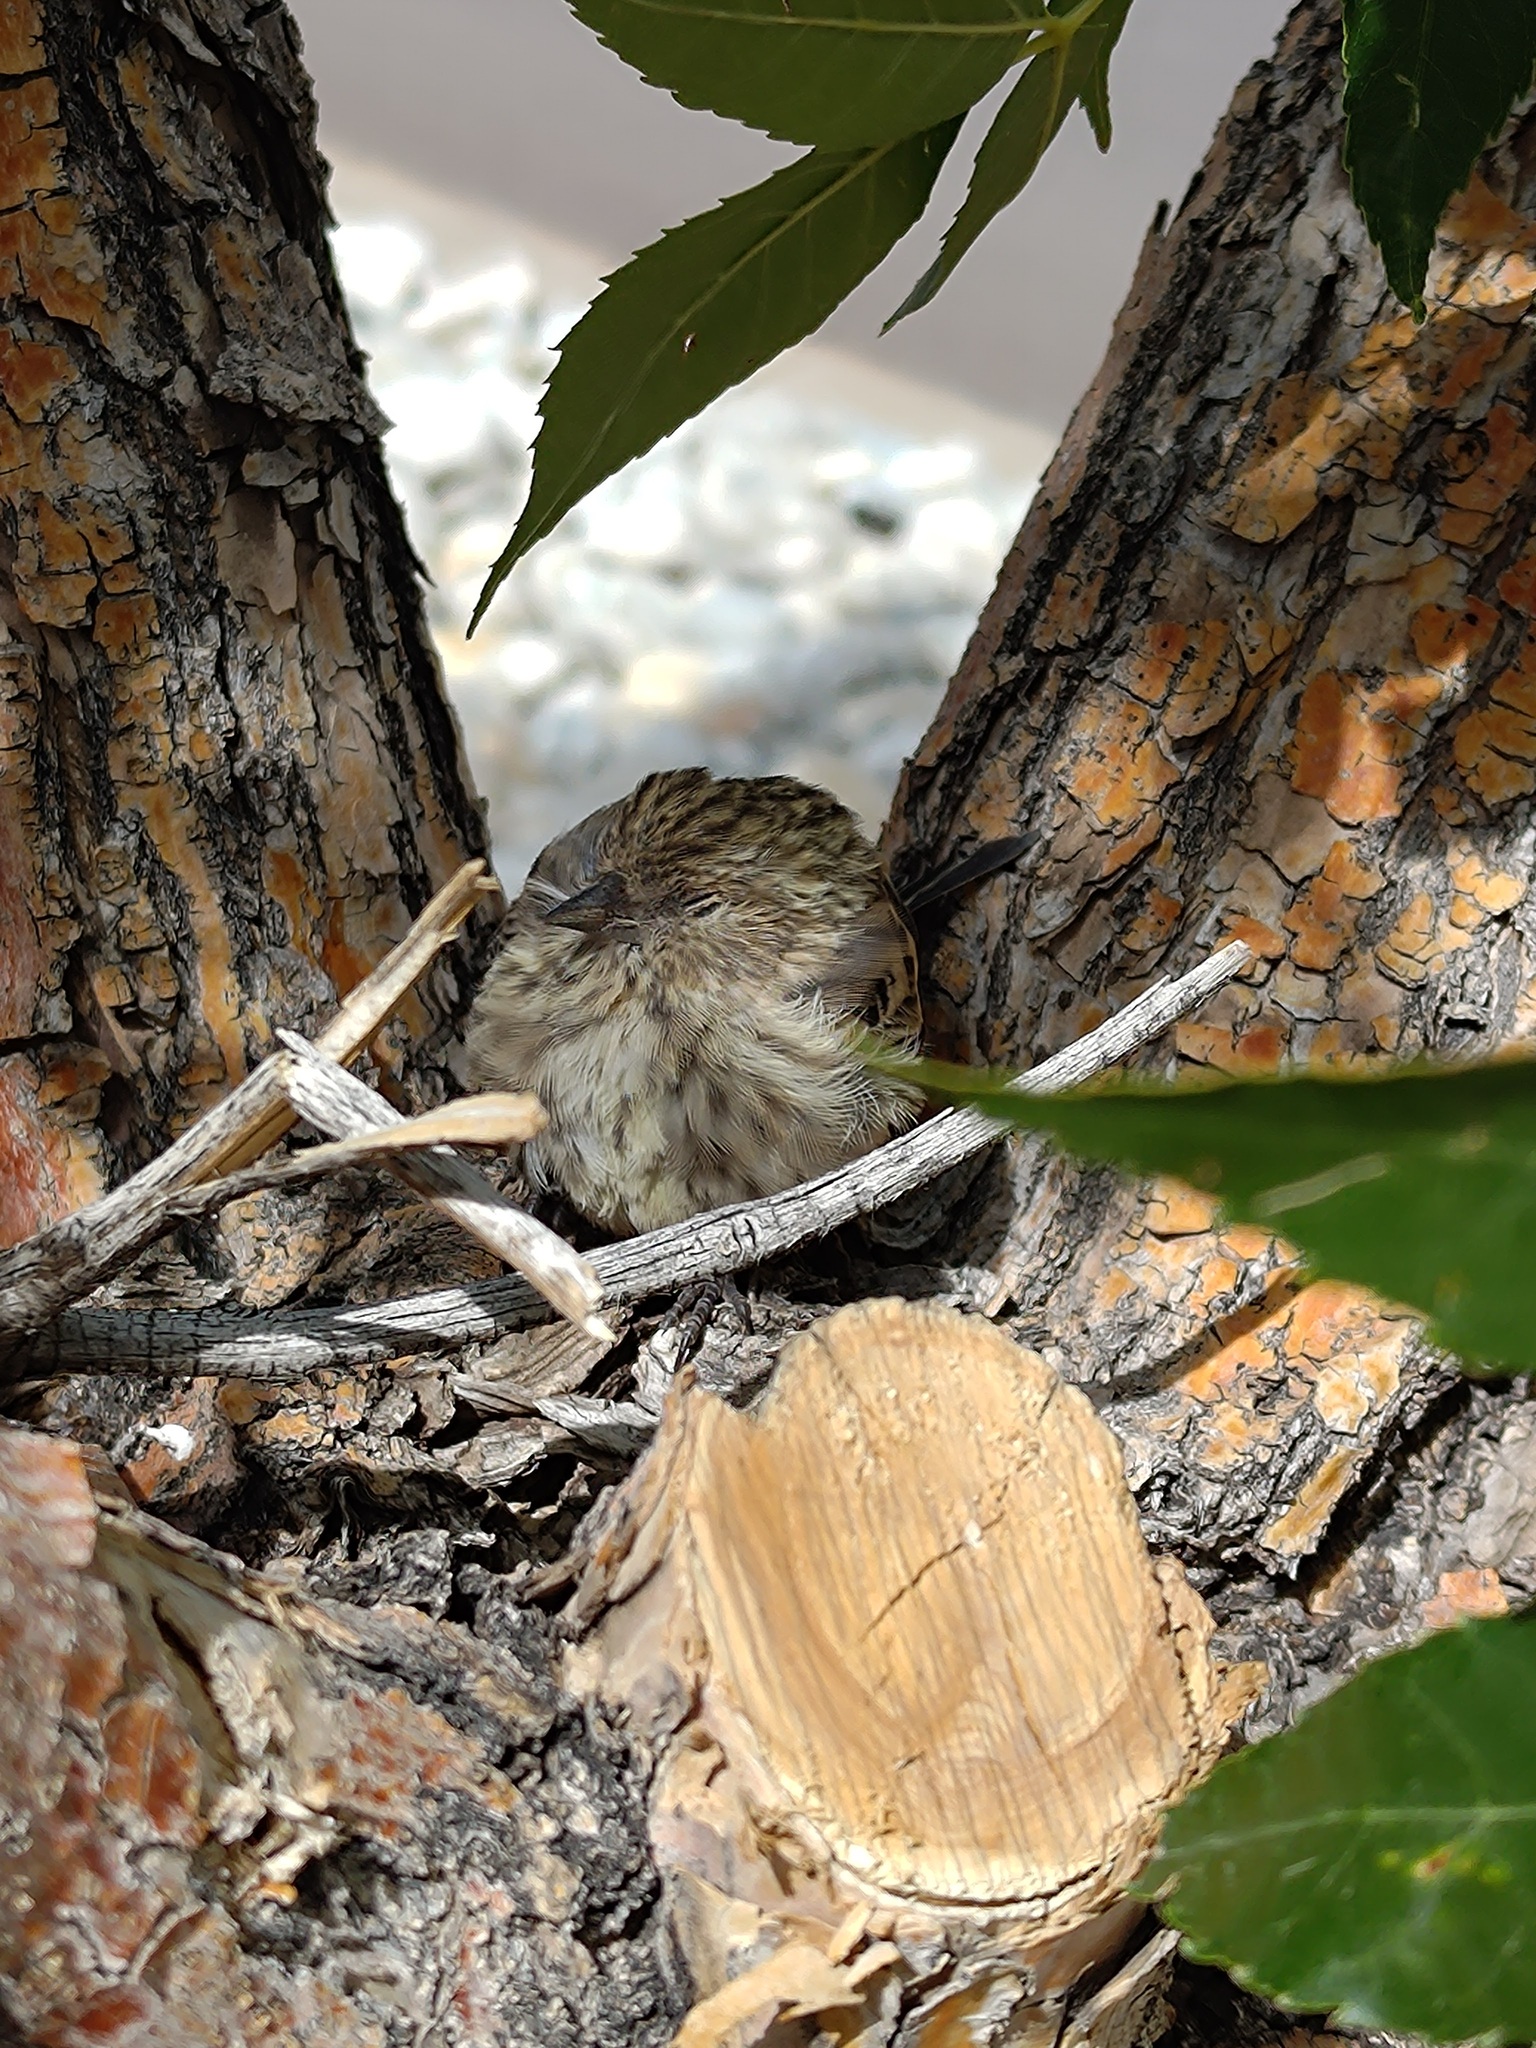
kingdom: Animalia
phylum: Chordata
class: Aves
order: Passeriformes
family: Fringillidae
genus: Spinus
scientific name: Spinus pinus
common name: Pine siskin
